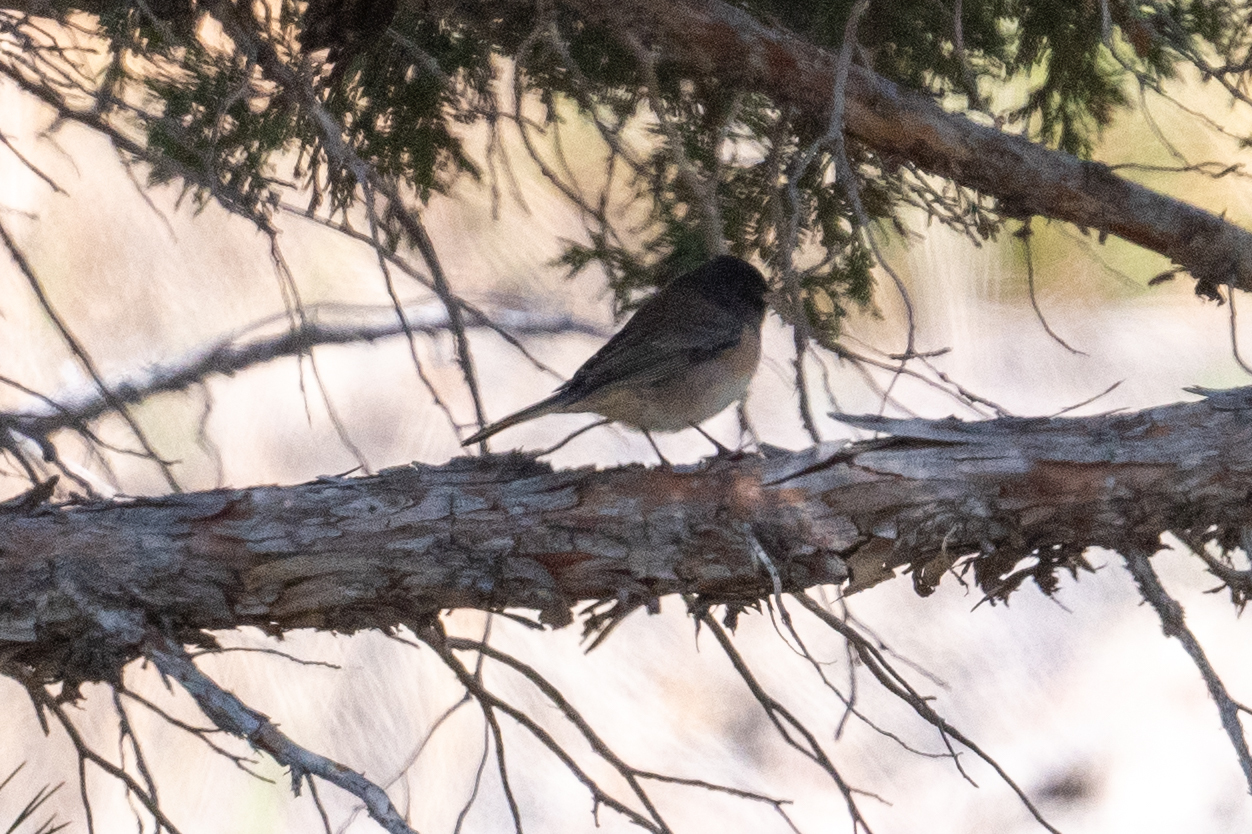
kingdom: Animalia
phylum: Chordata
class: Aves
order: Passeriformes
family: Passerellidae
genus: Junco
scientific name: Junco hyemalis
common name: Dark-eyed junco
